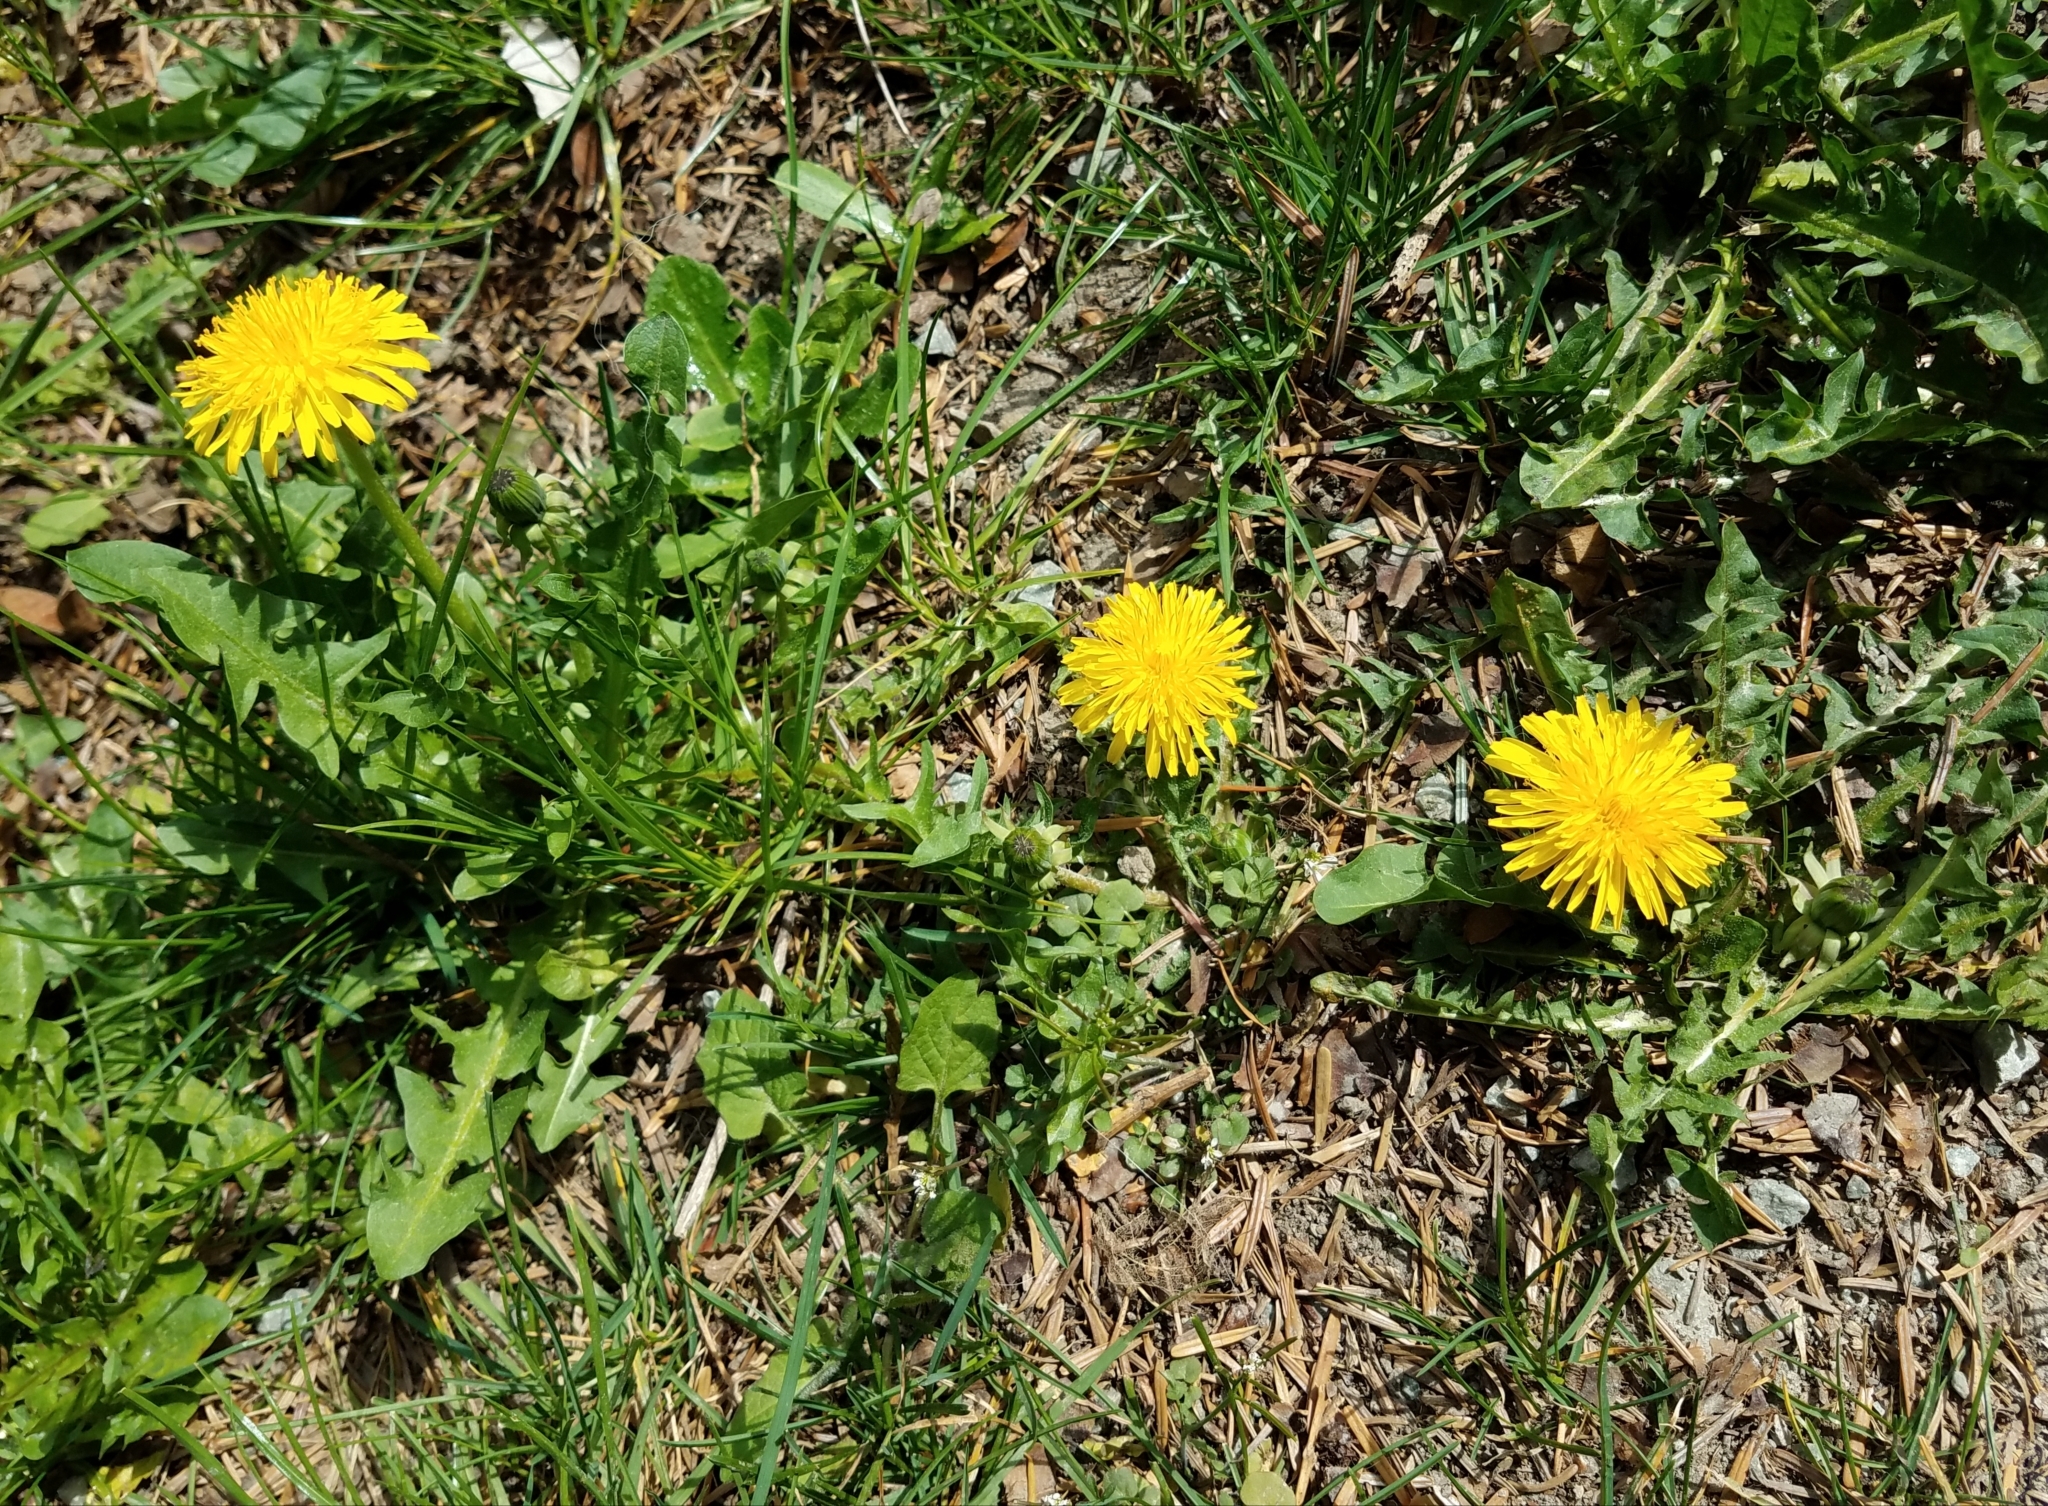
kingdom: Plantae
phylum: Tracheophyta
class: Magnoliopsida
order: Asterales
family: Asteraceae
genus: Taraxacum
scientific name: Taraxacum officinale
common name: Common dandelion
